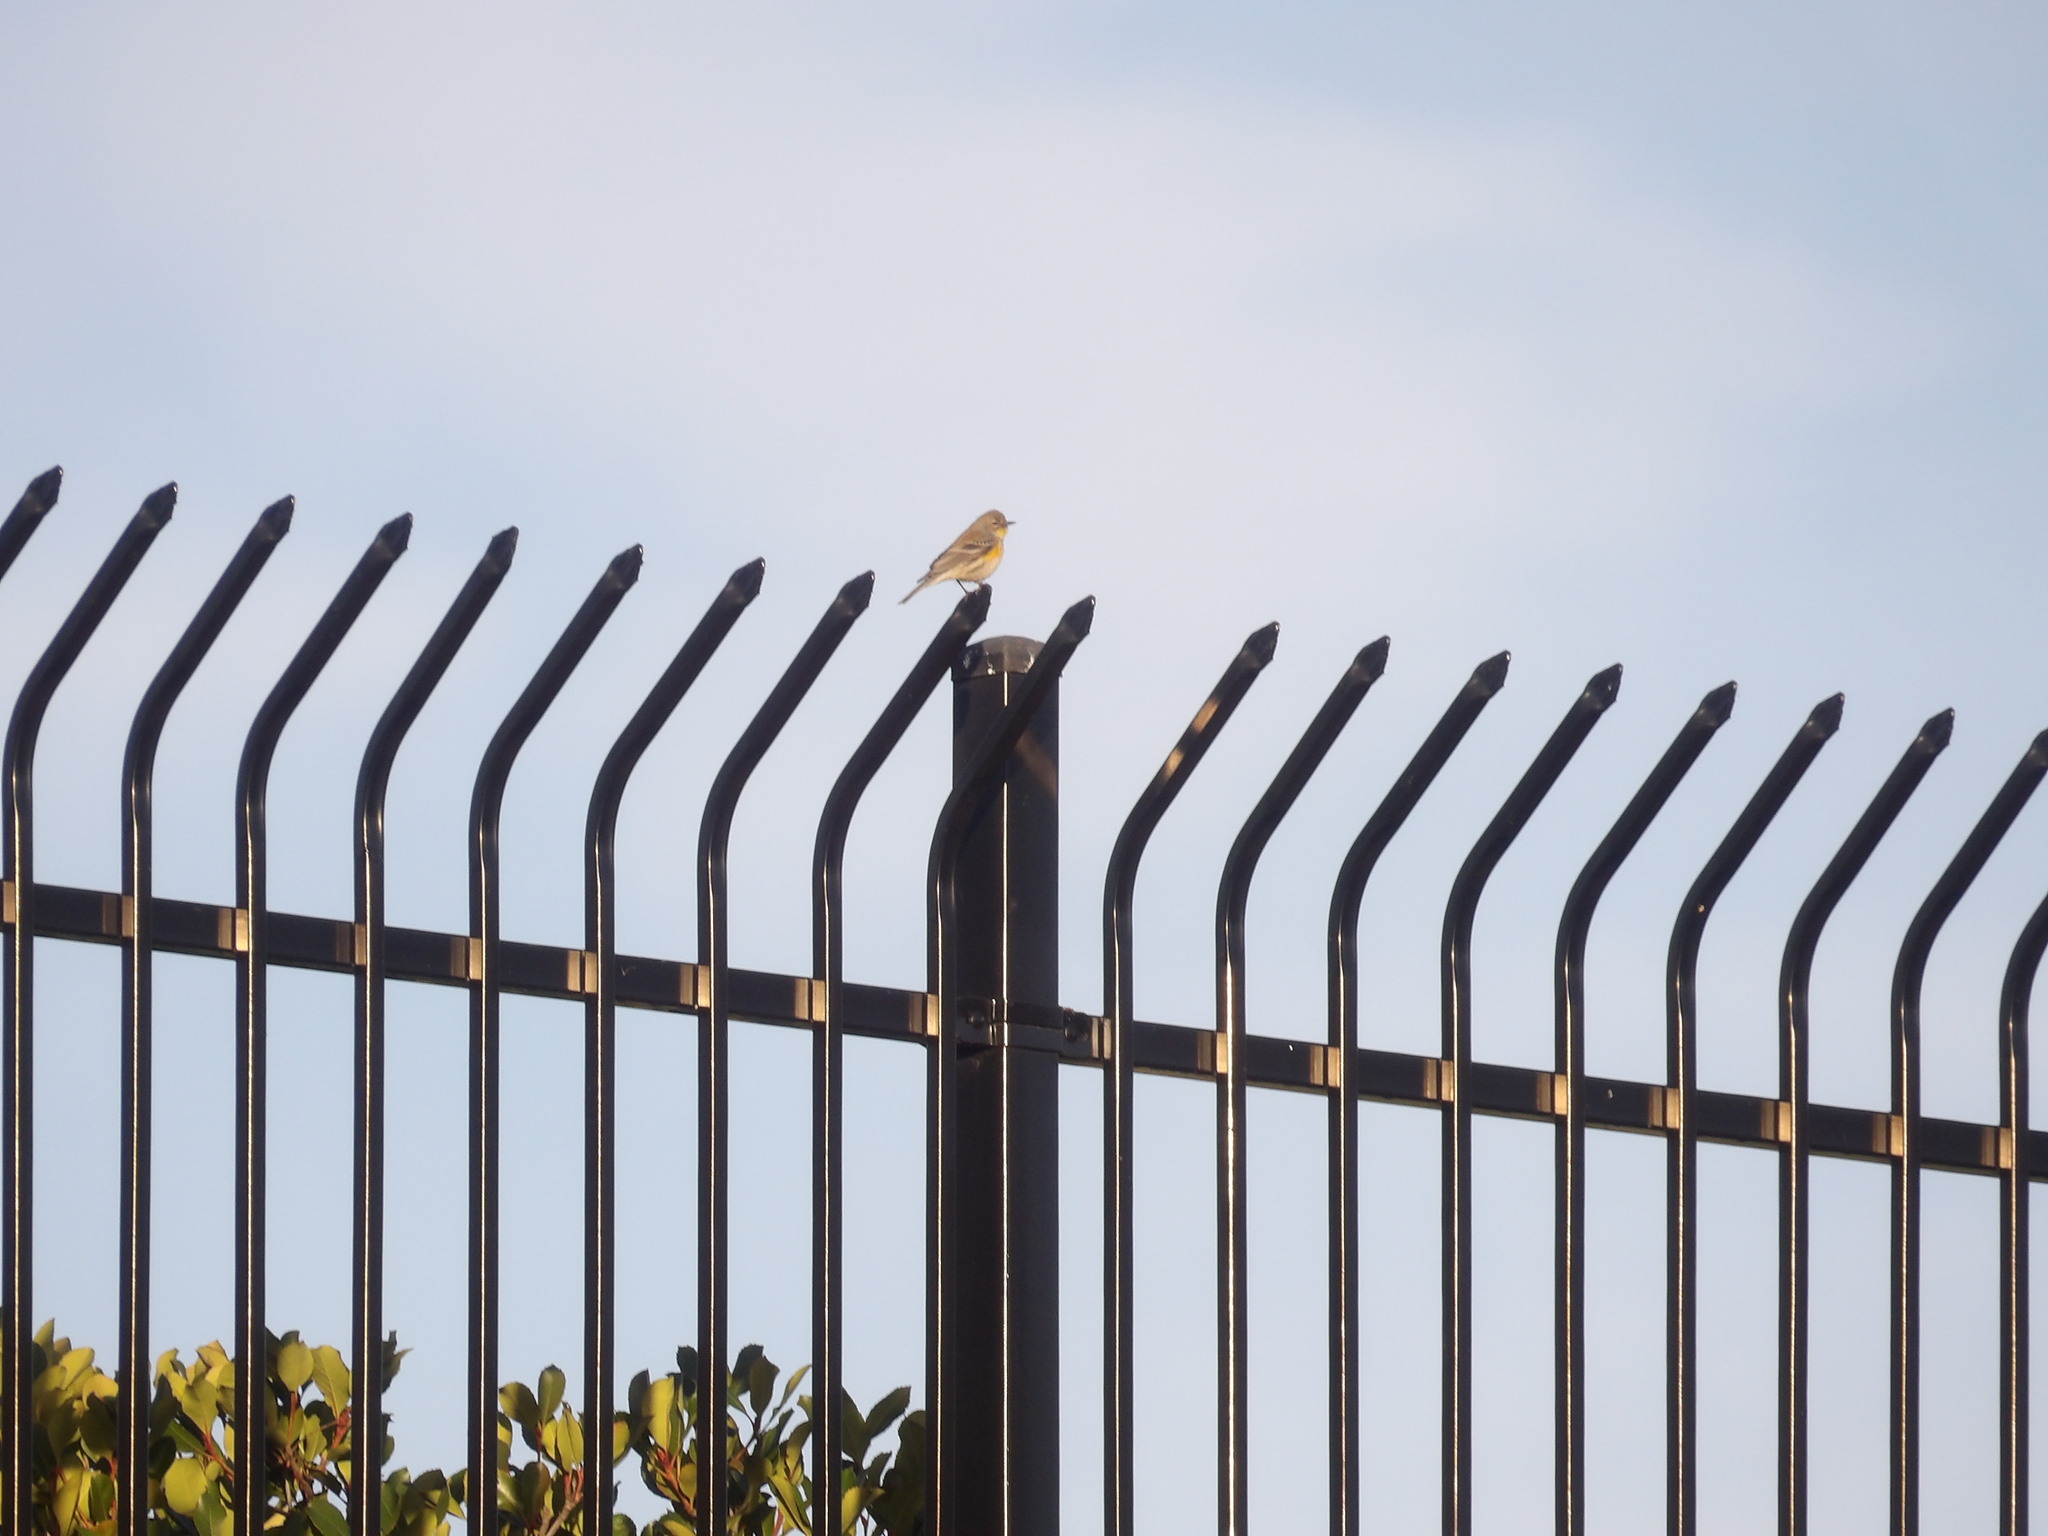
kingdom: Animalia
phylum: Chordata
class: Aves
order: Passeriformes
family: Parulidae
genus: Setophaga
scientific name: Setophaga coronata
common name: Myrtle warbler
